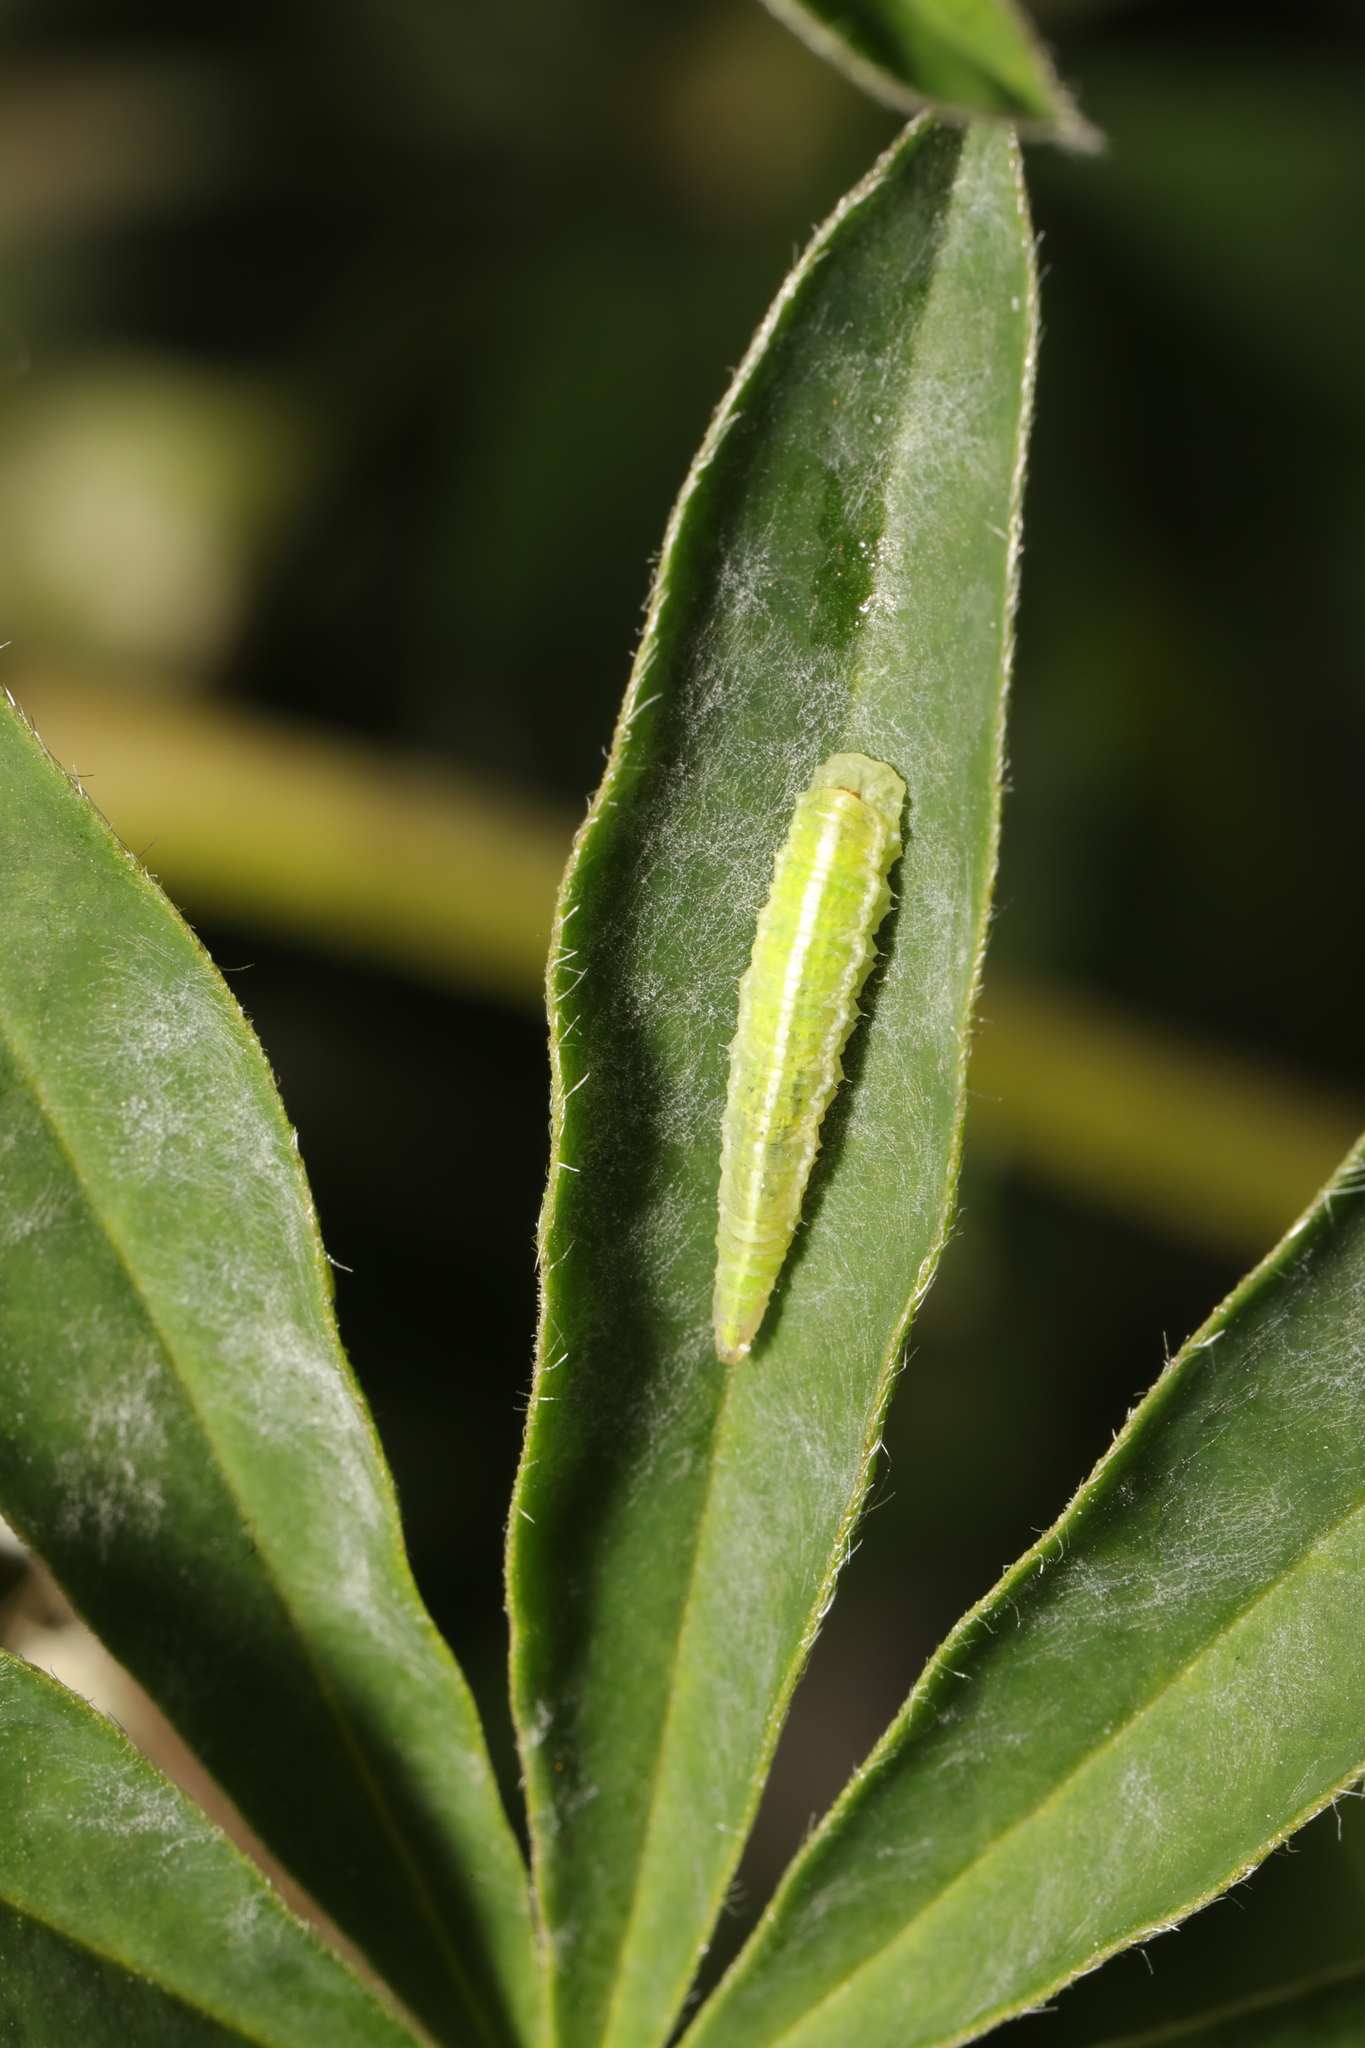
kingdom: Animalia
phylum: Arthropoda
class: Insecta
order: Diptera
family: Syrphidae
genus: Scaeva
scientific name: Scaeva
